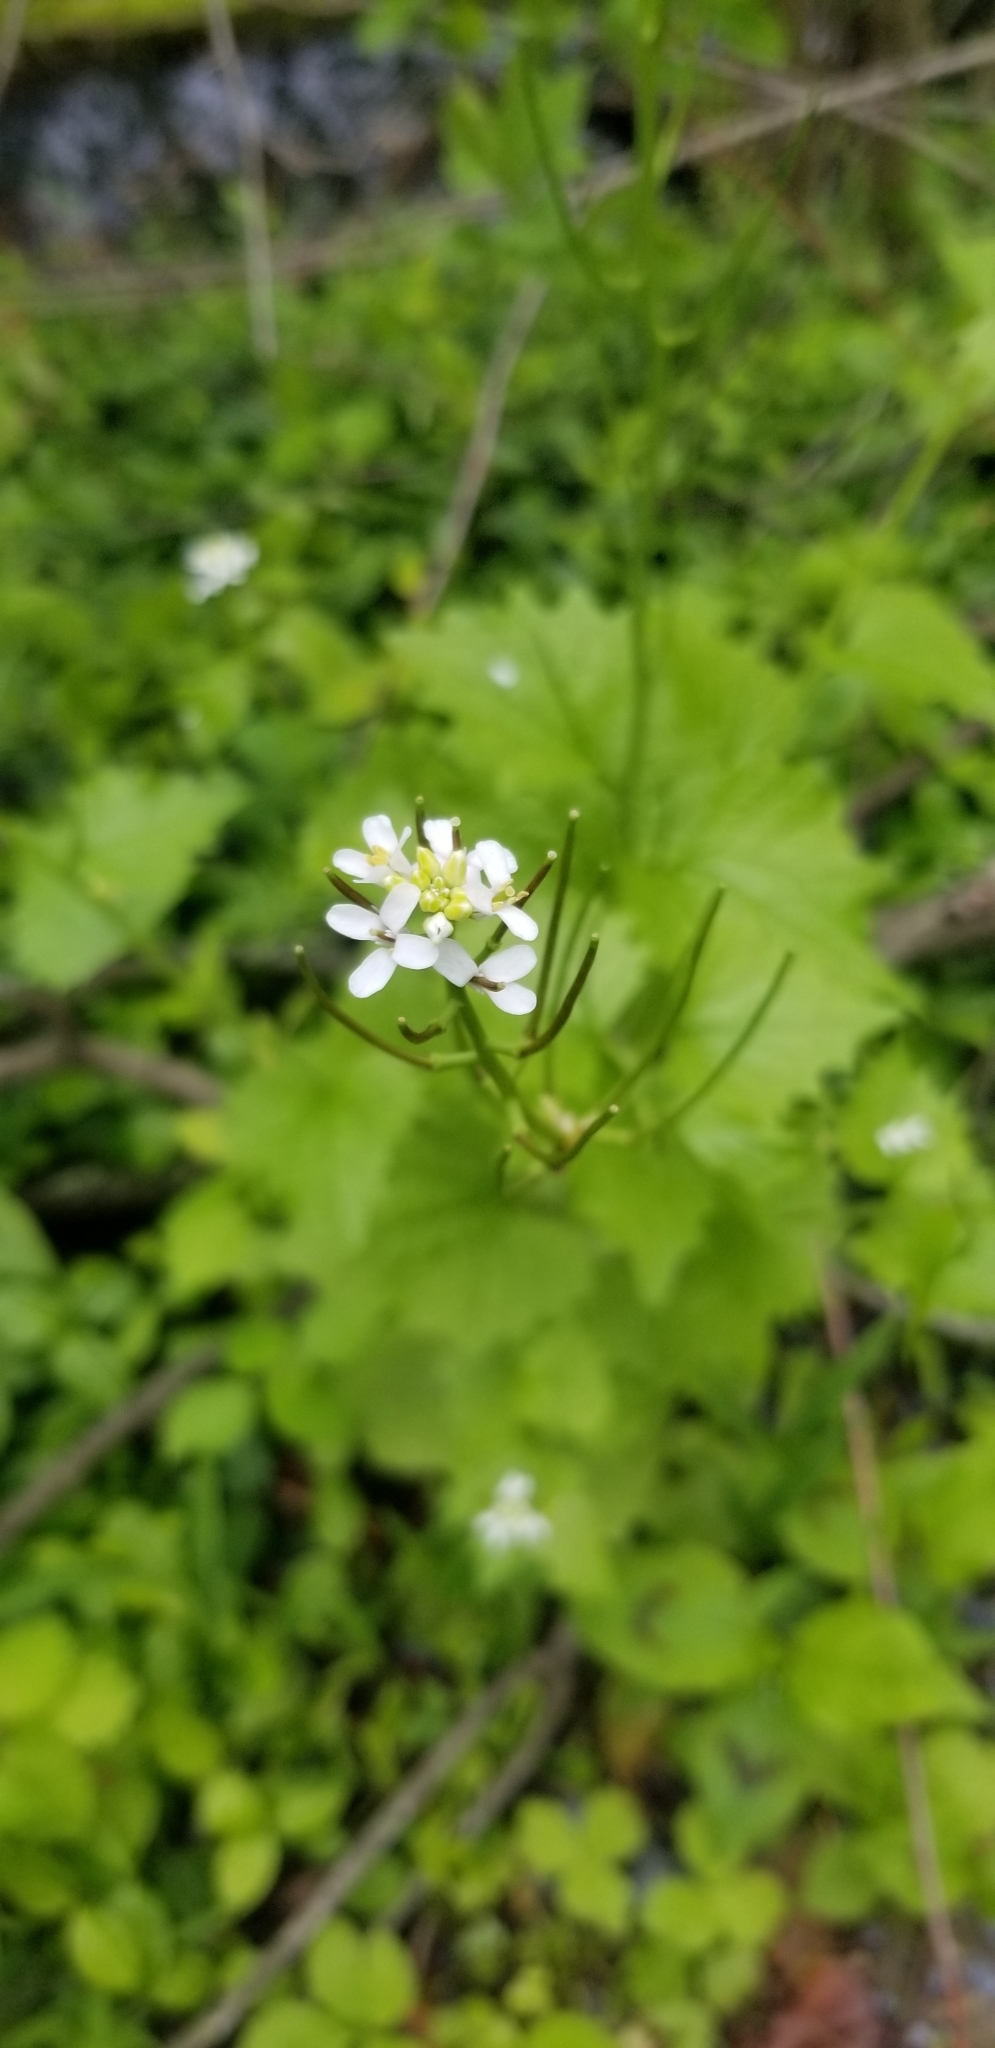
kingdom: Plantae
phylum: Tracheophyta
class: Magnoliopsida
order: Brassicales
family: Brassicaceae
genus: Alliaria
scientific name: Alliaria petiolata
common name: Garlic mustard
